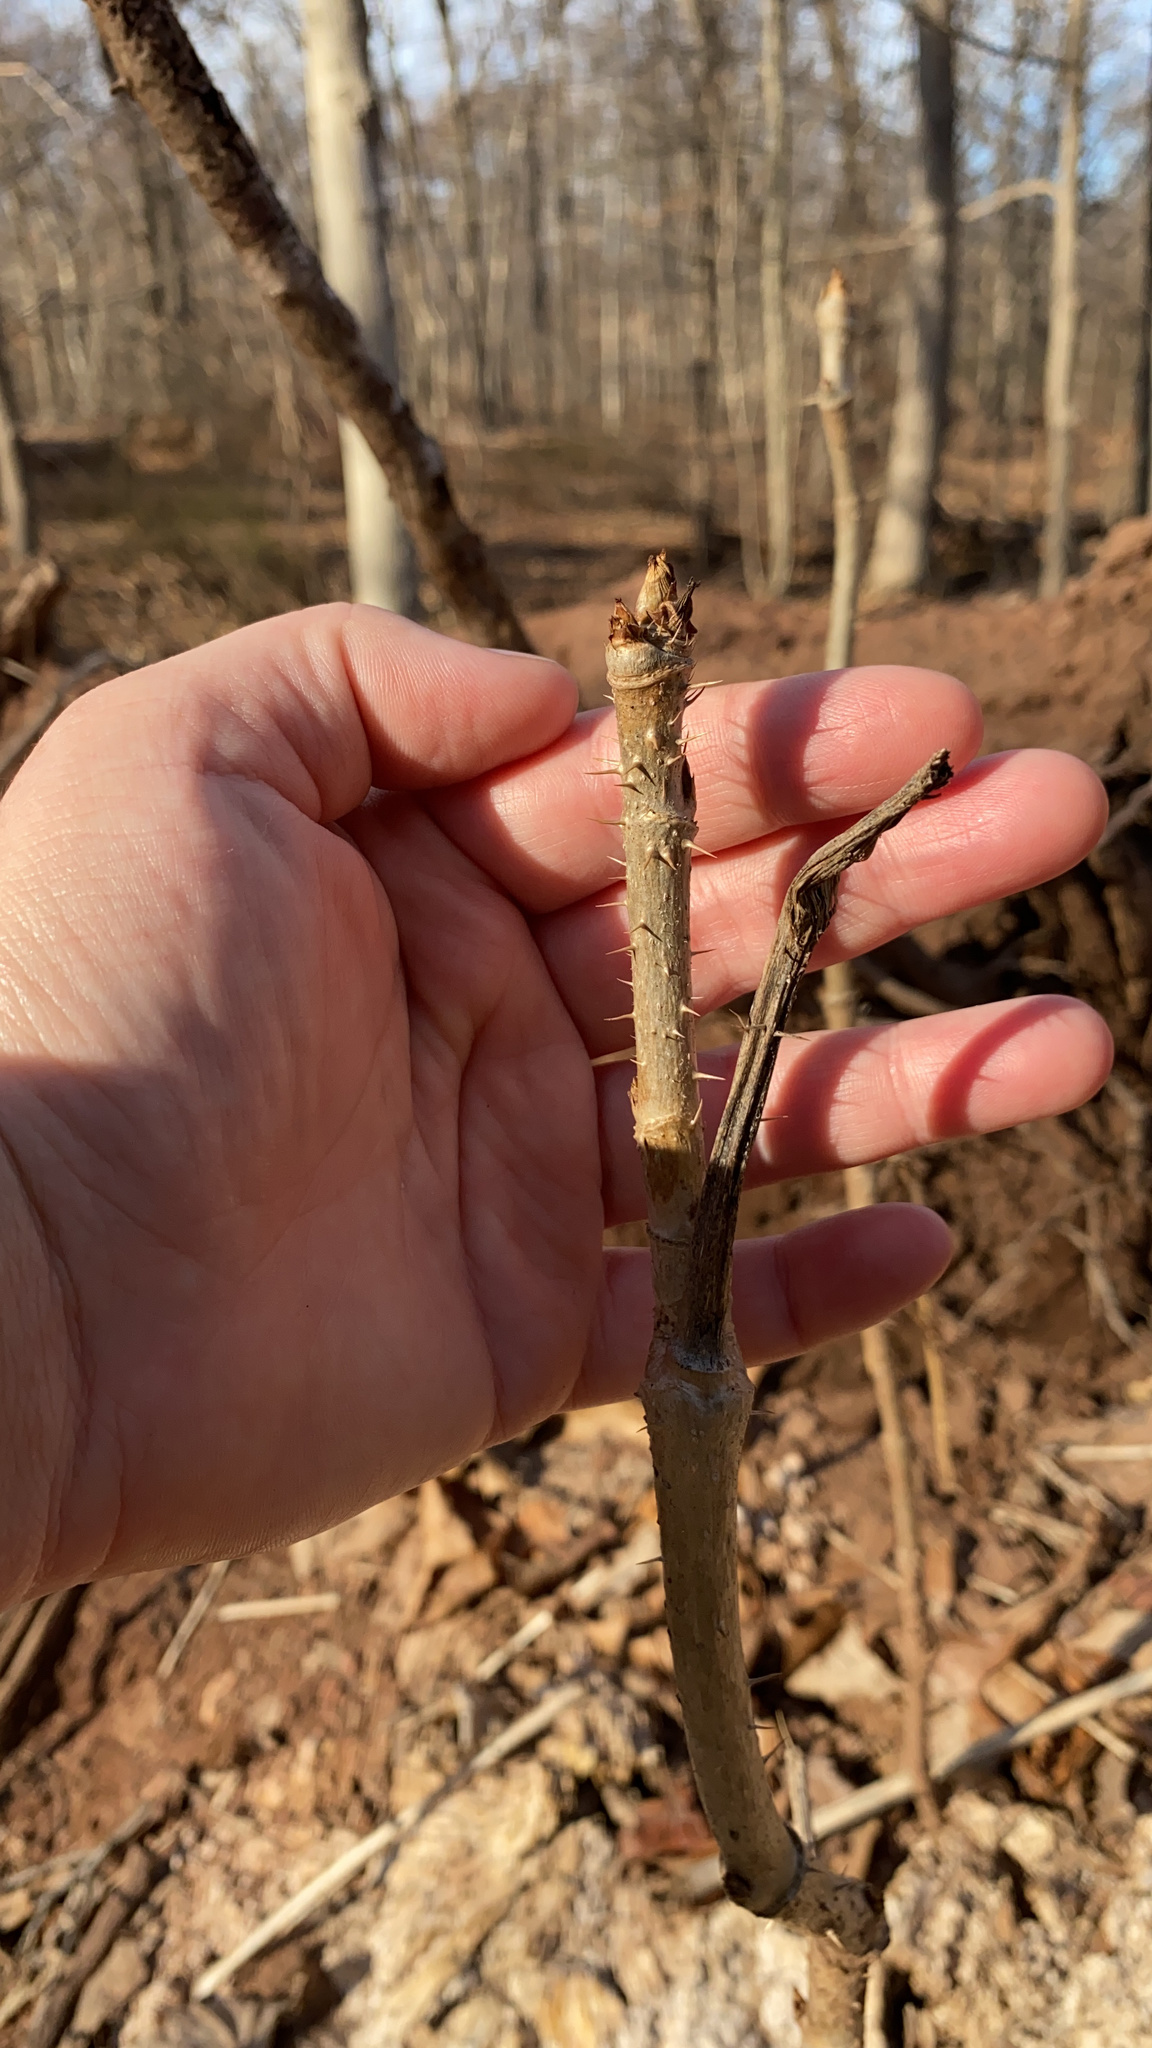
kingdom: Plantae
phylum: Tracheophyta
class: Magnoliopsida
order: Apiales
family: Araliaceae
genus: Aralia
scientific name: Aralia elata
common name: Japanese angelica-tree
